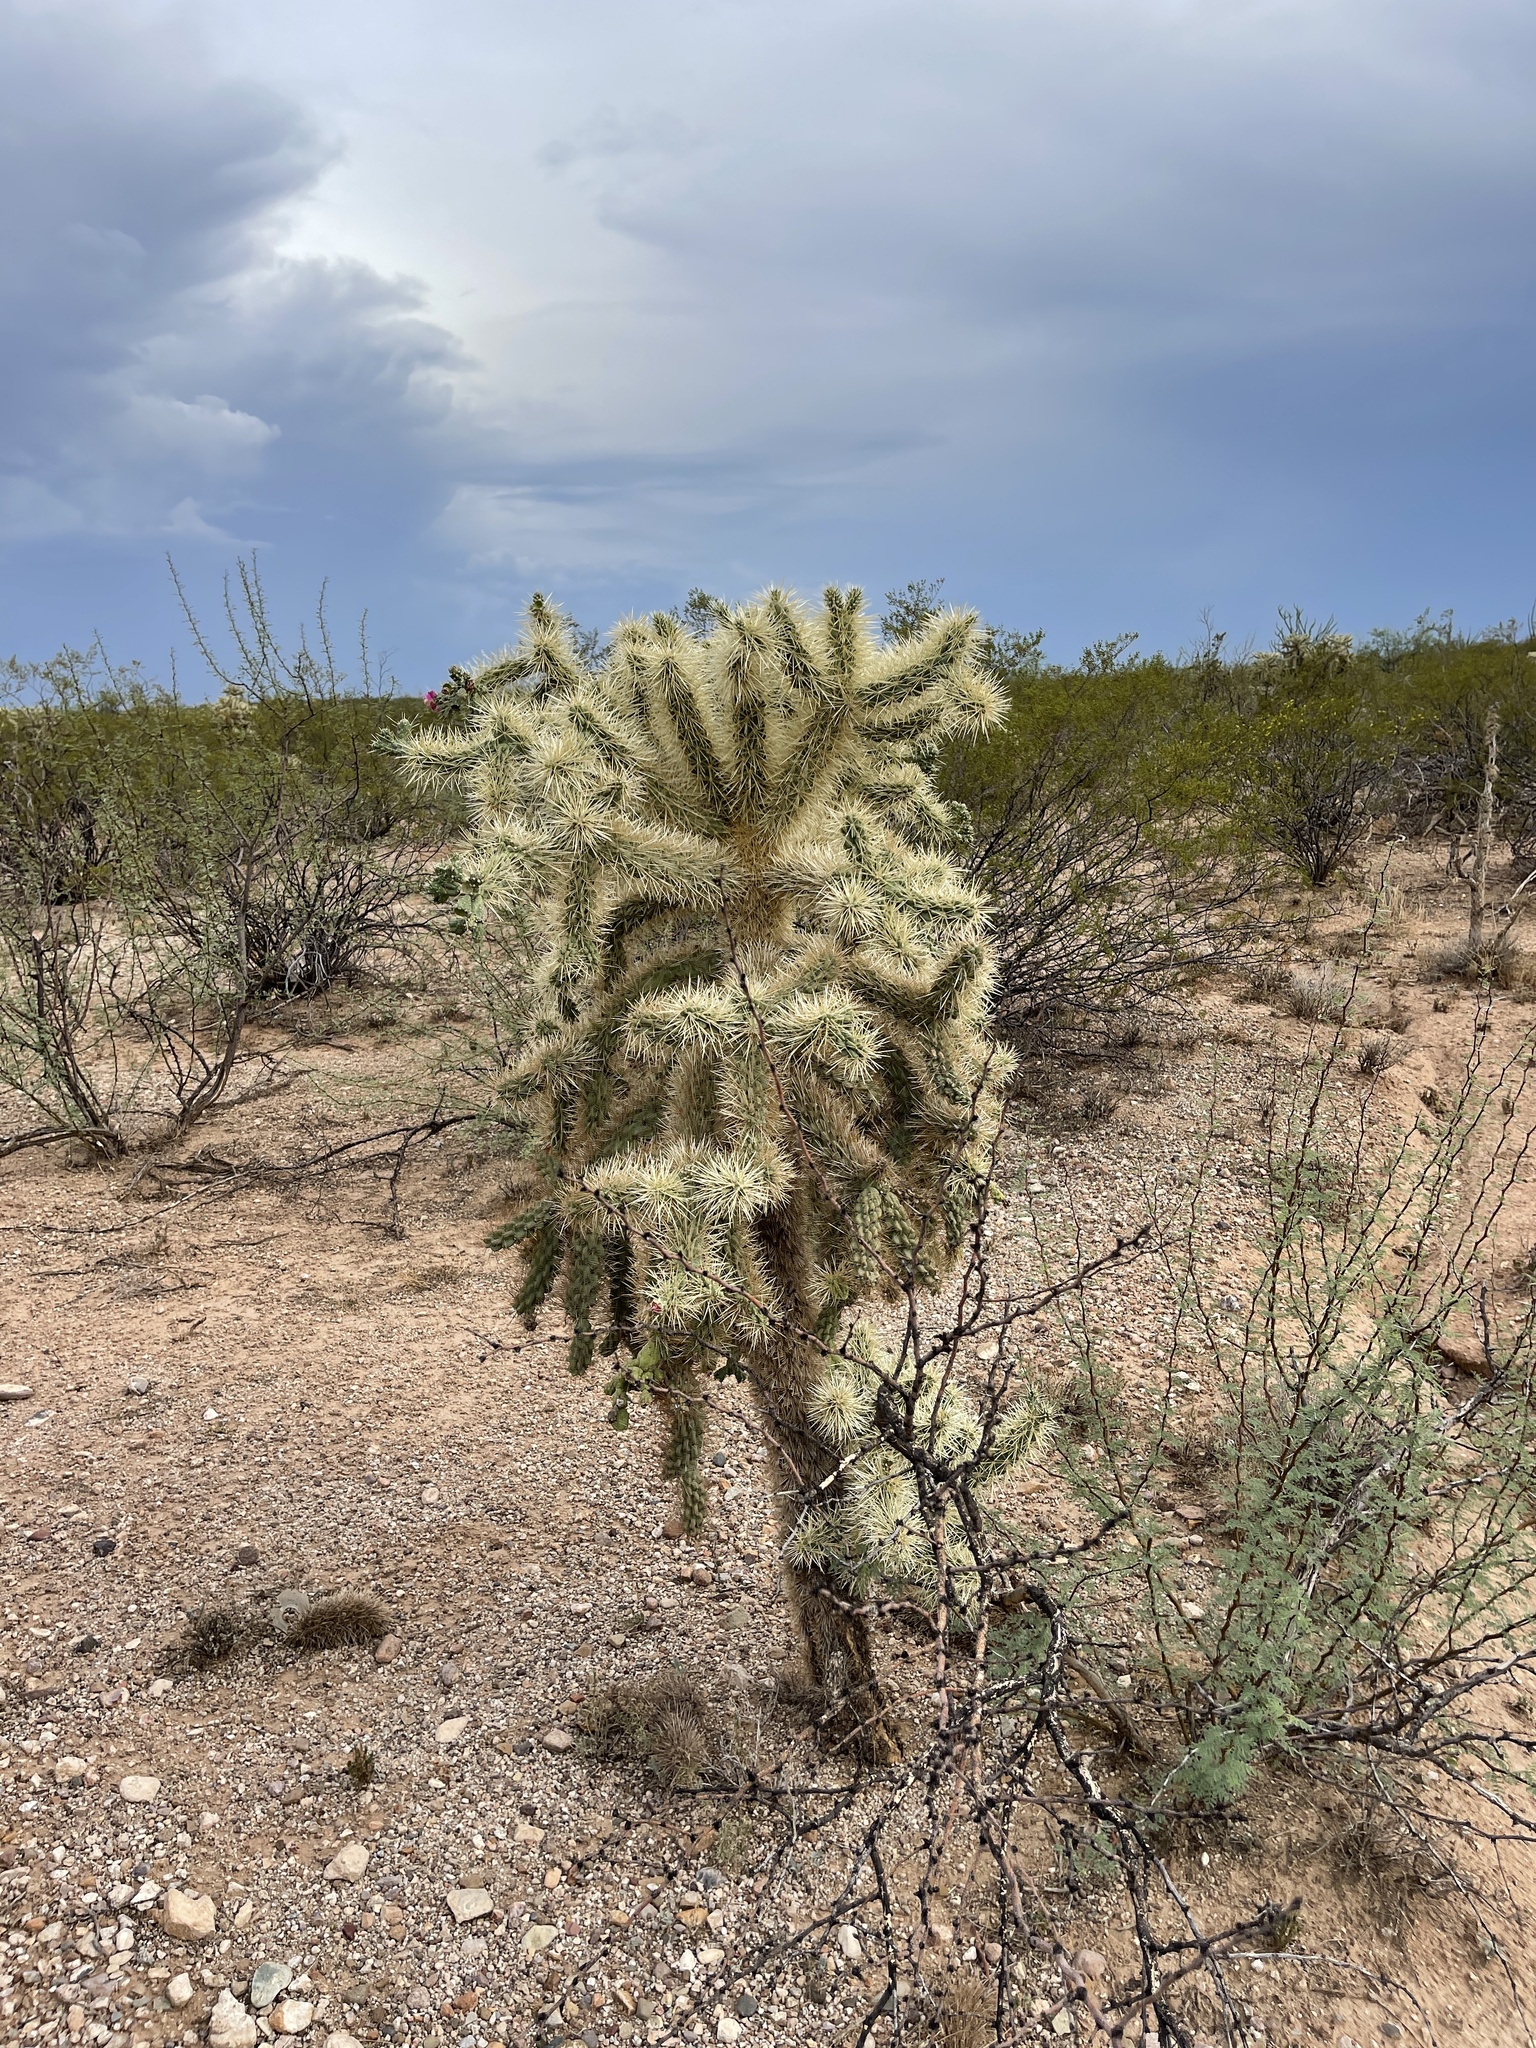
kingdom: Plantae
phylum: Tracheophyta
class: Magnoliopsida
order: Caryophyllales
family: Cactaceae
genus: Cylindropuntia
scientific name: Cylindropuntia fulgida
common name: Jumping cholla
